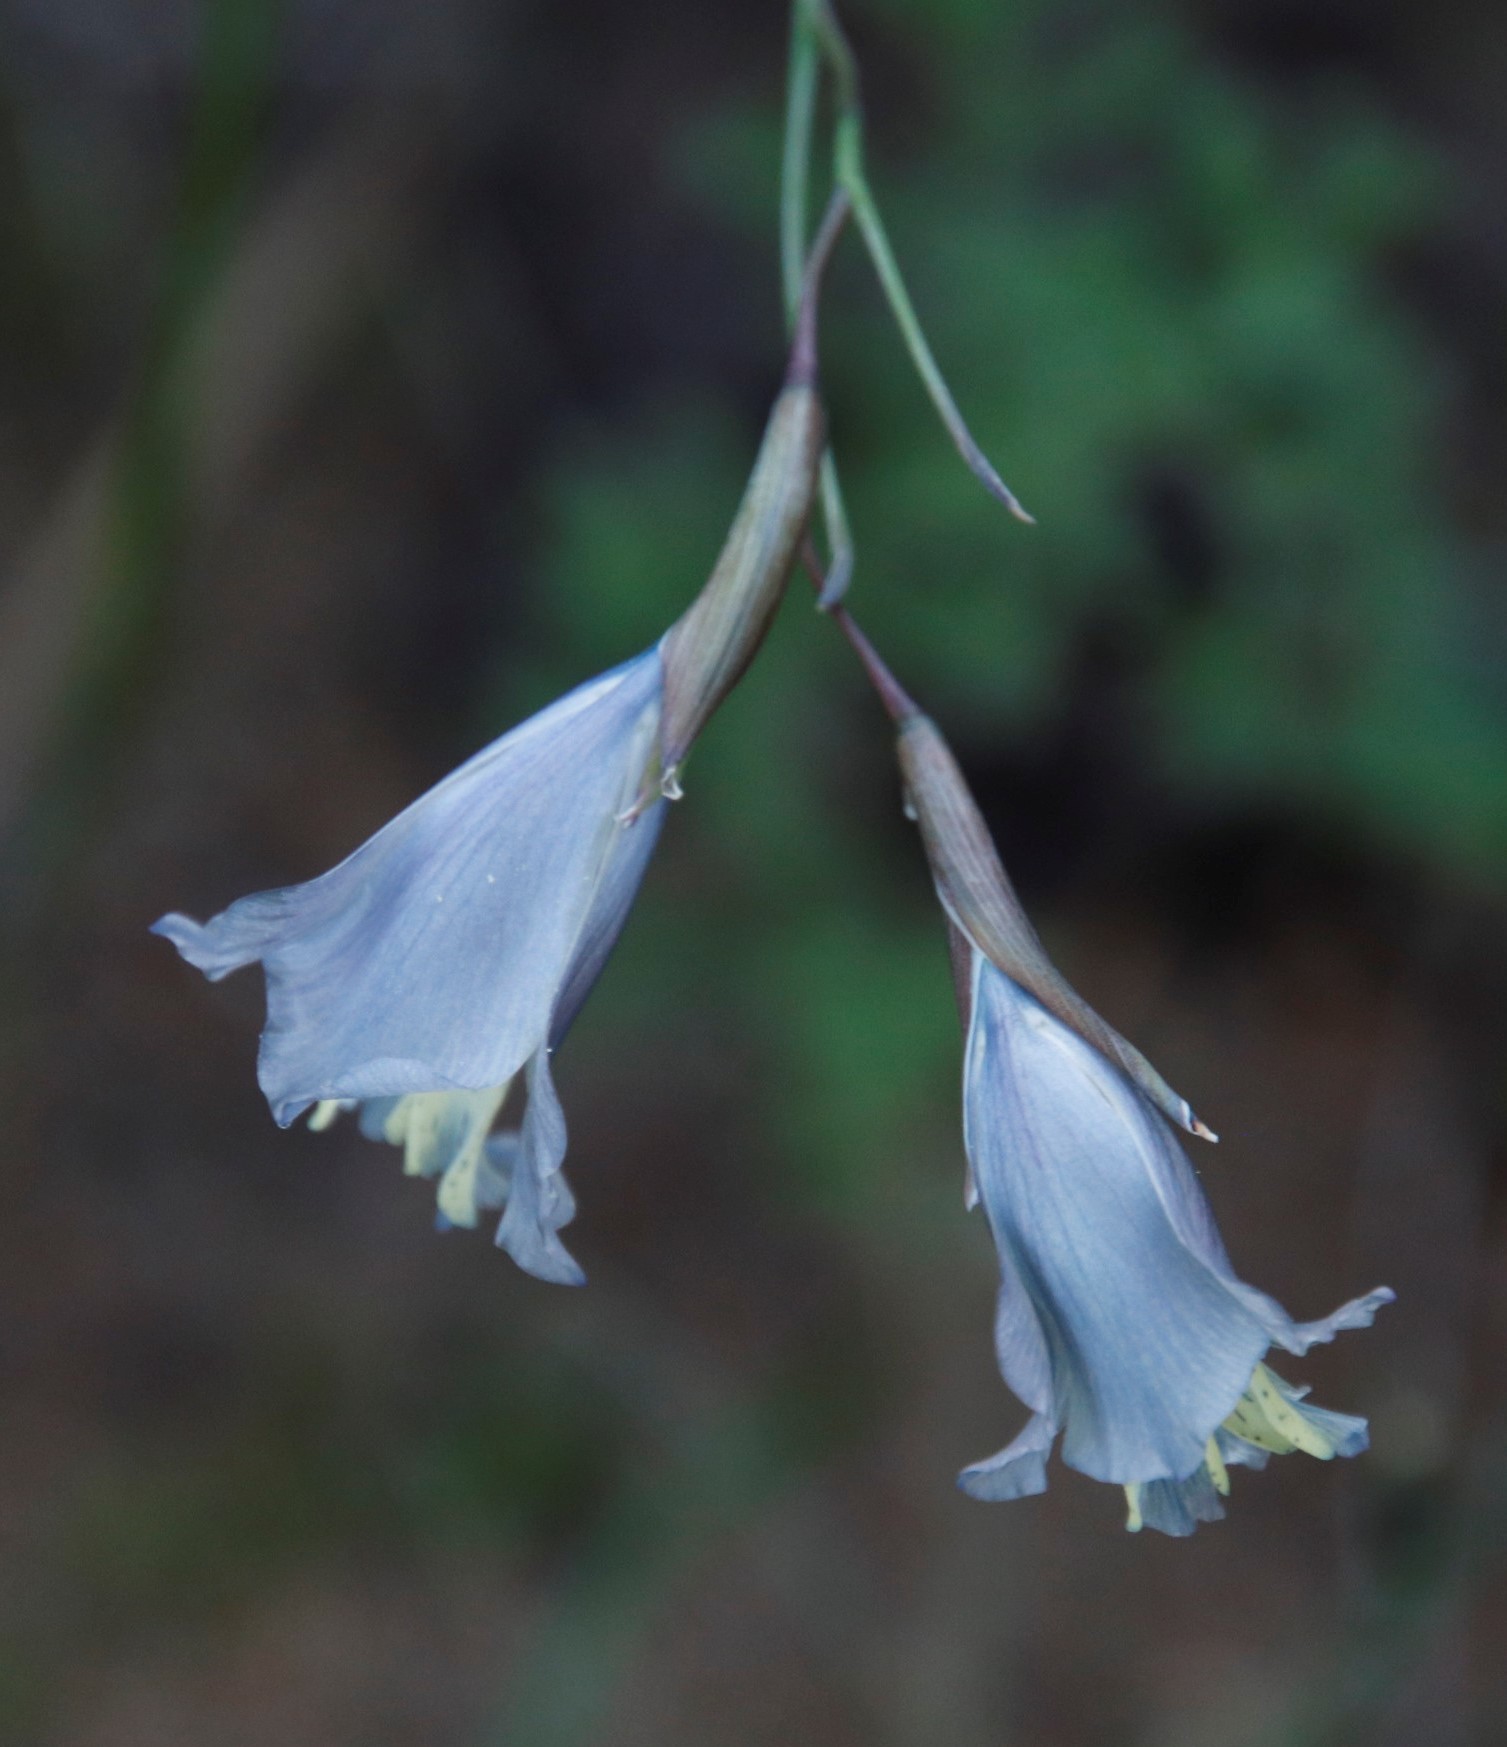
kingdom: Plantae
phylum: Tracheophyta
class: Liliopsida
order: Asparagales
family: Iridaceae
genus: Gladiolus
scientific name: Gladiolus gracilis
